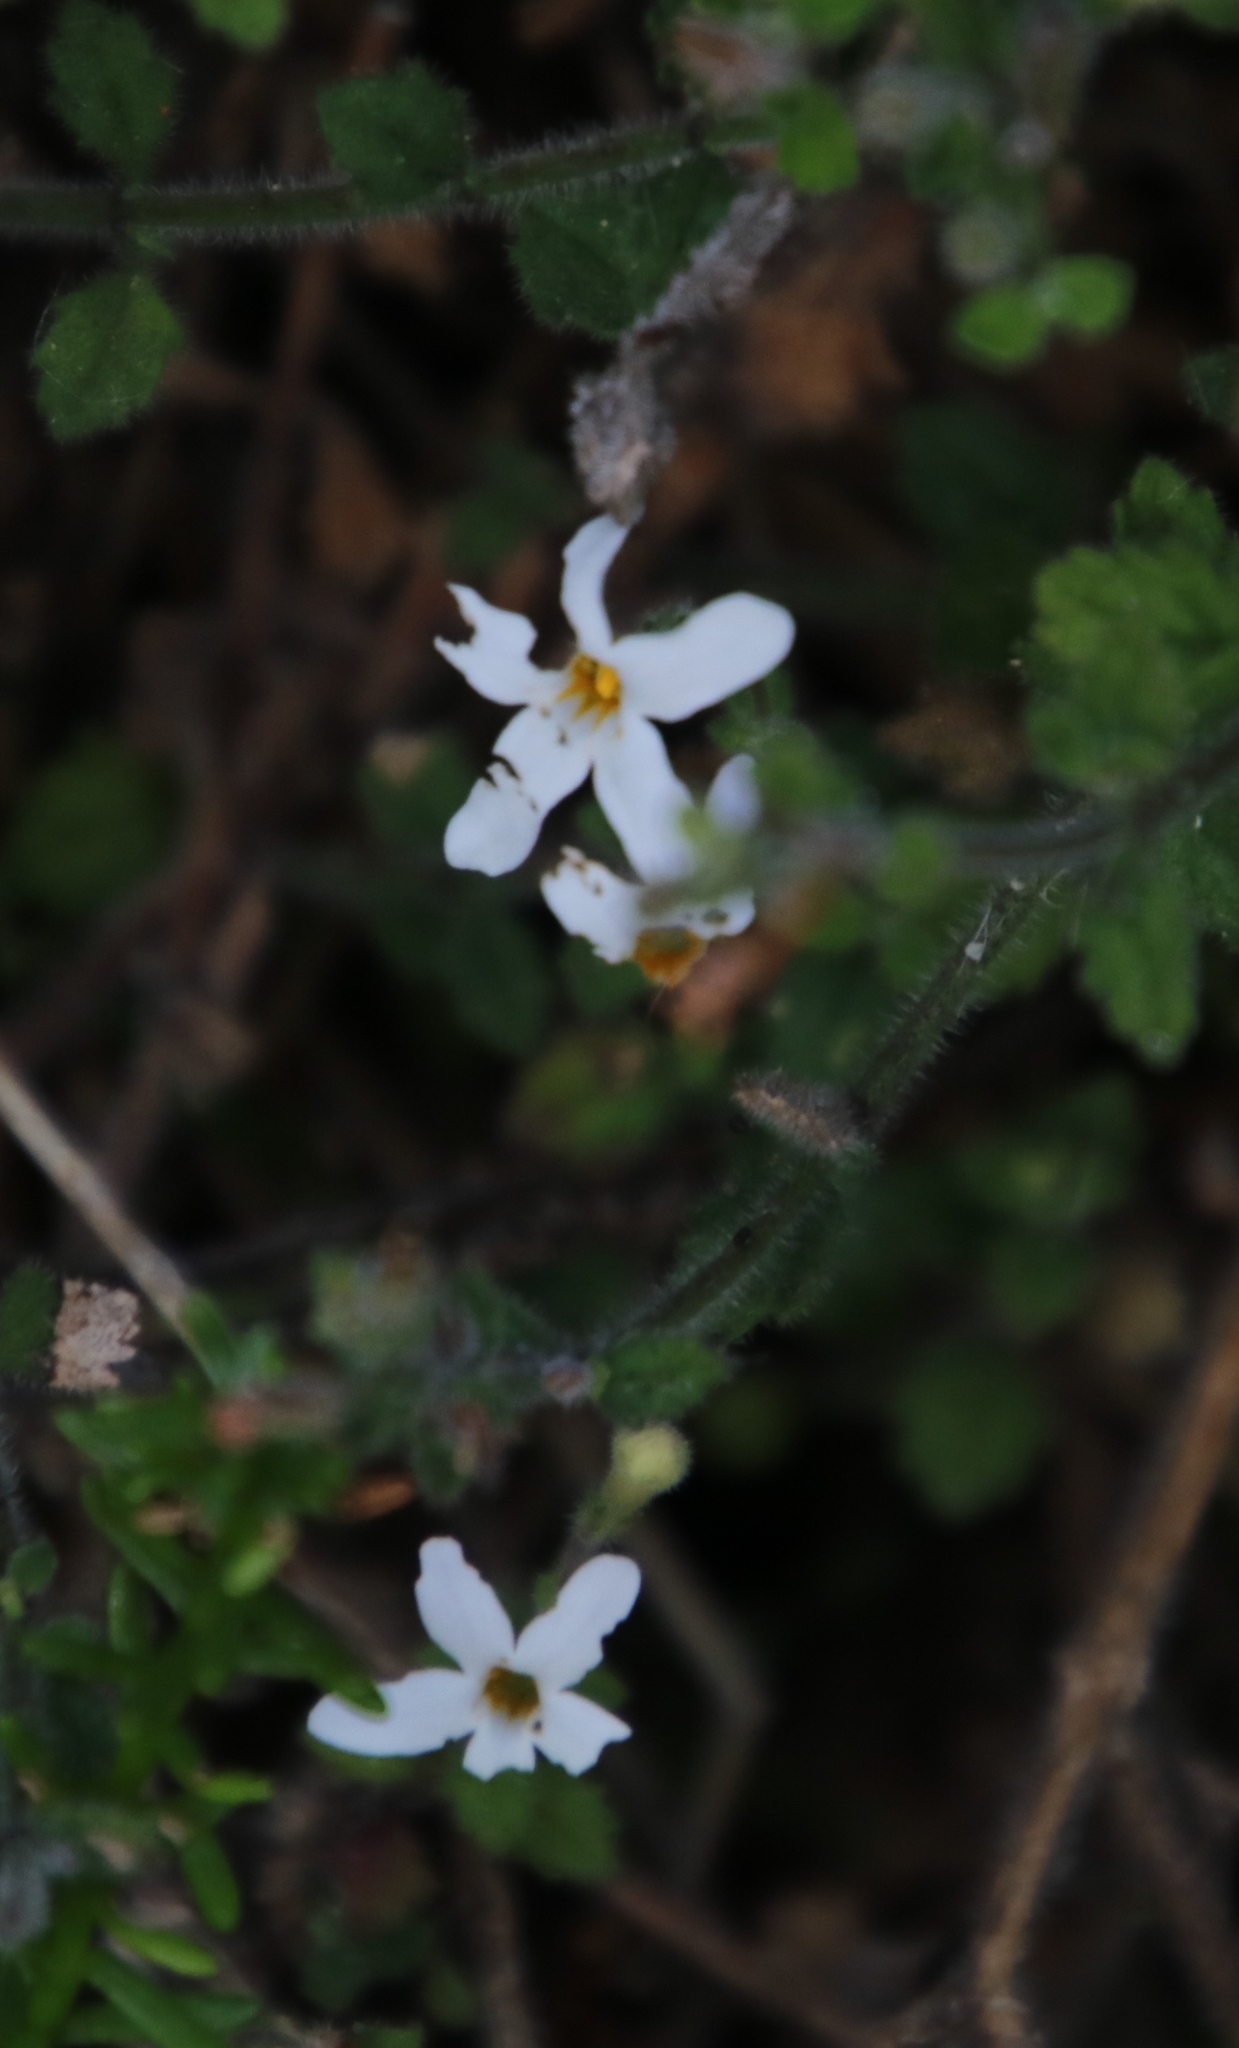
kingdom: Plantae
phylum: Tracheophyta
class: Magnoliopsida
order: Lamiales
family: Scrophulariaceae
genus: Chaenostoma
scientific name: Chaenostoma hispidum
